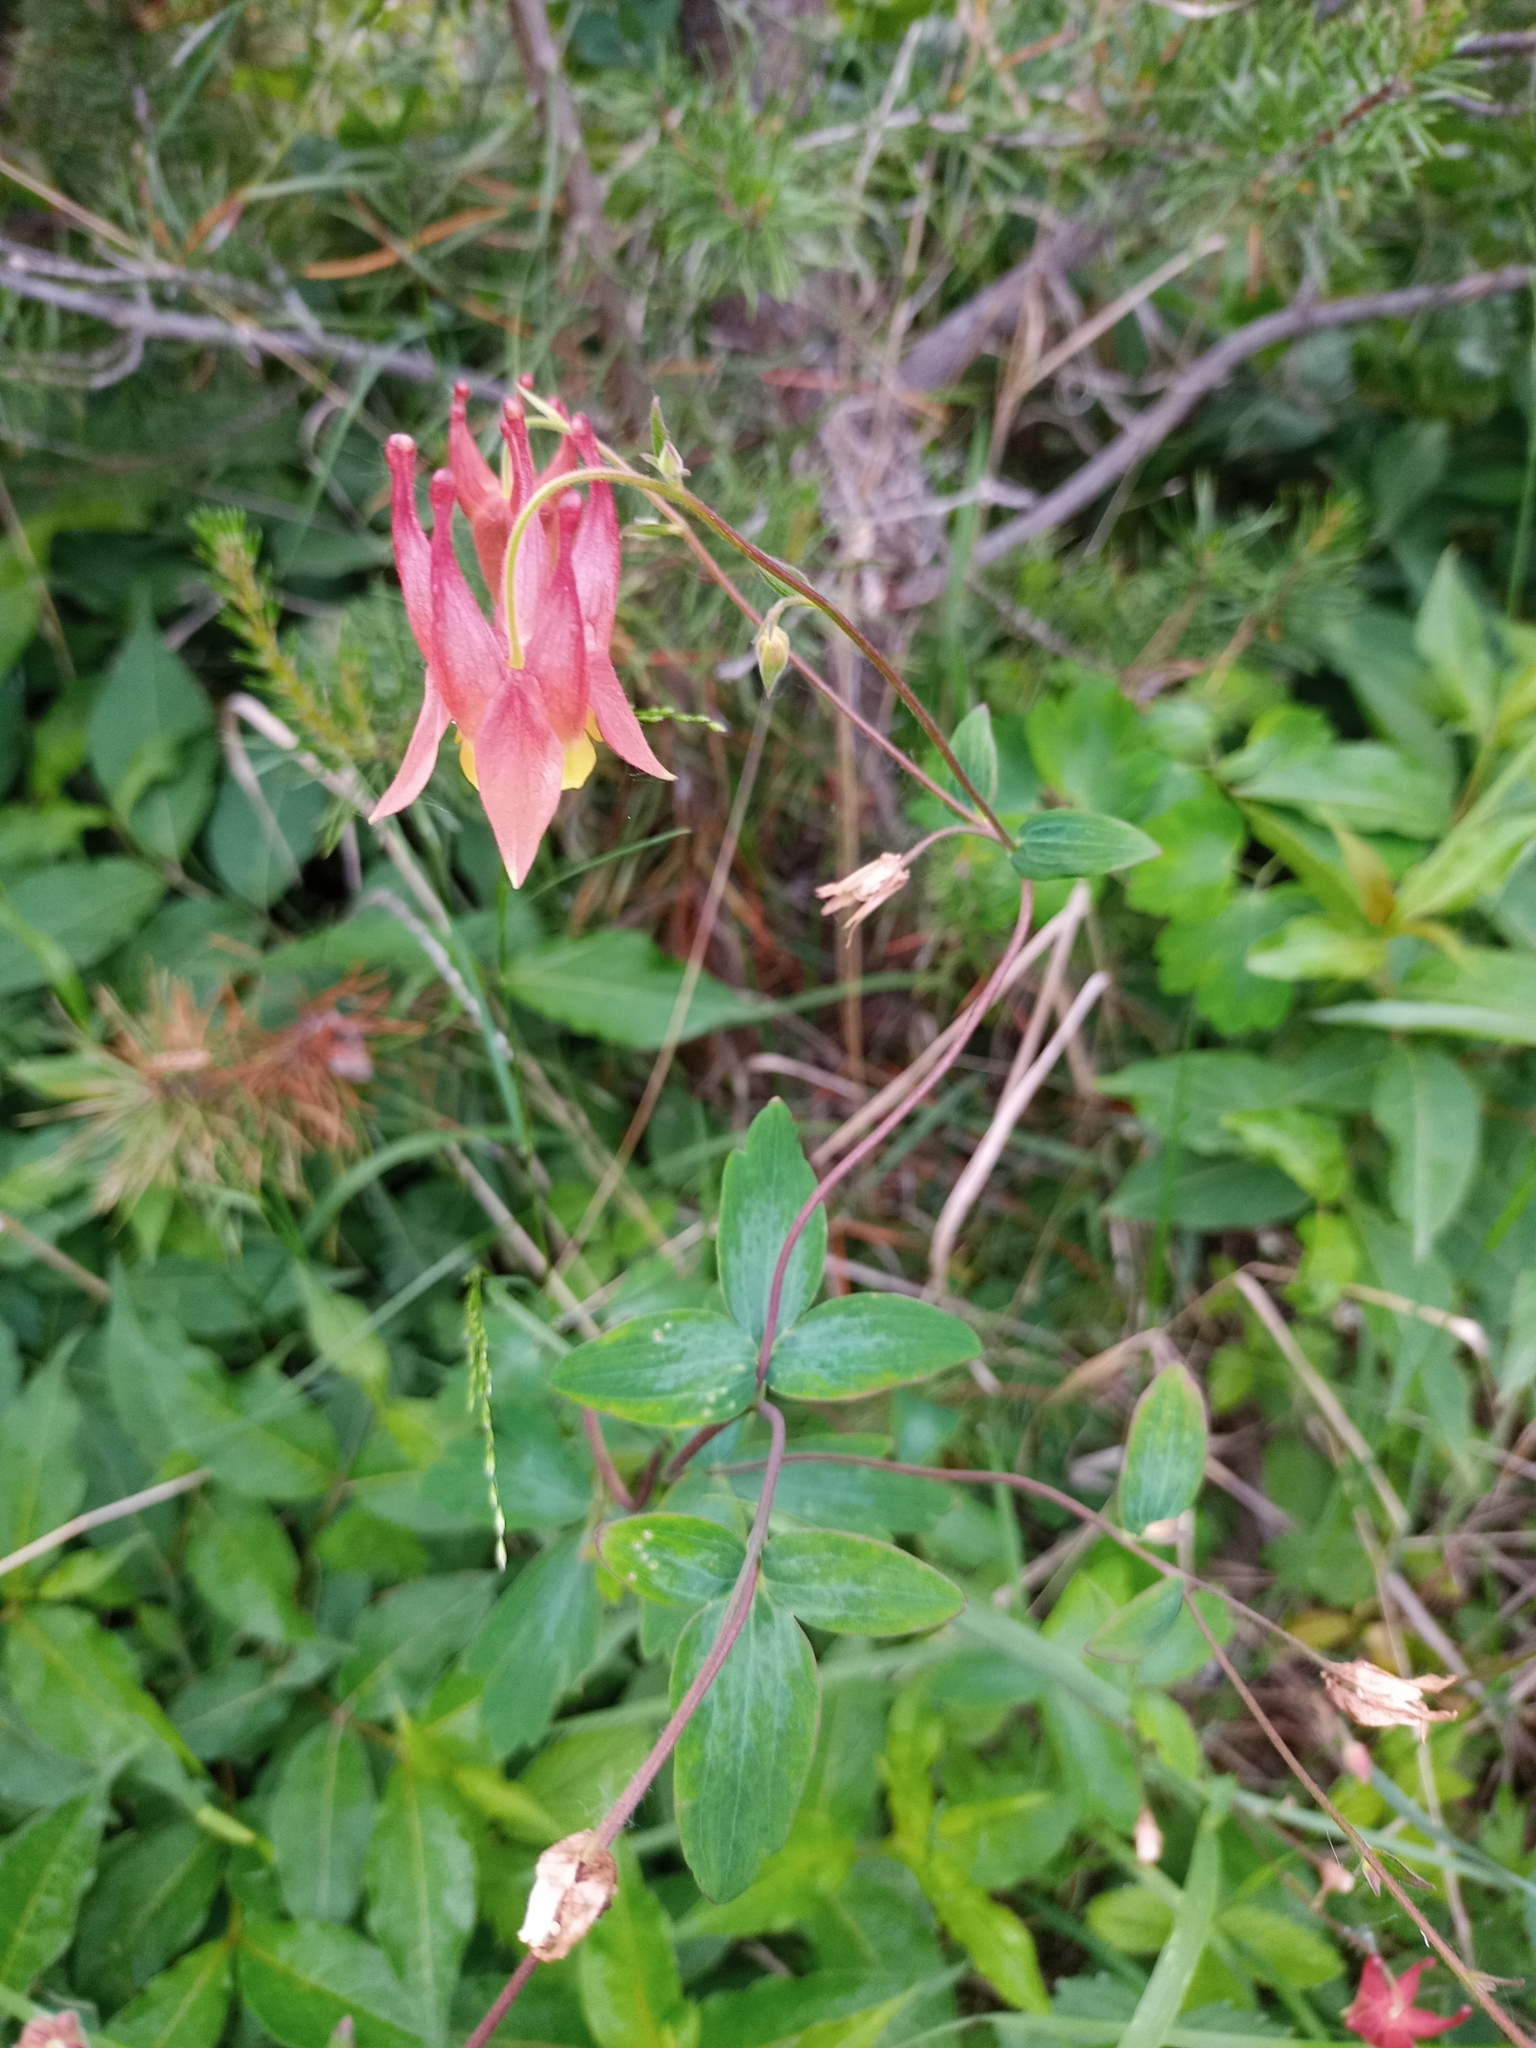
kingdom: Plantae
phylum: Tracheophyta
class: Magnoliopsida
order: Ranunculales
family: Ranunculaceae
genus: Aquilegia
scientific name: Aquilegia canadensis
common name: American columbine
